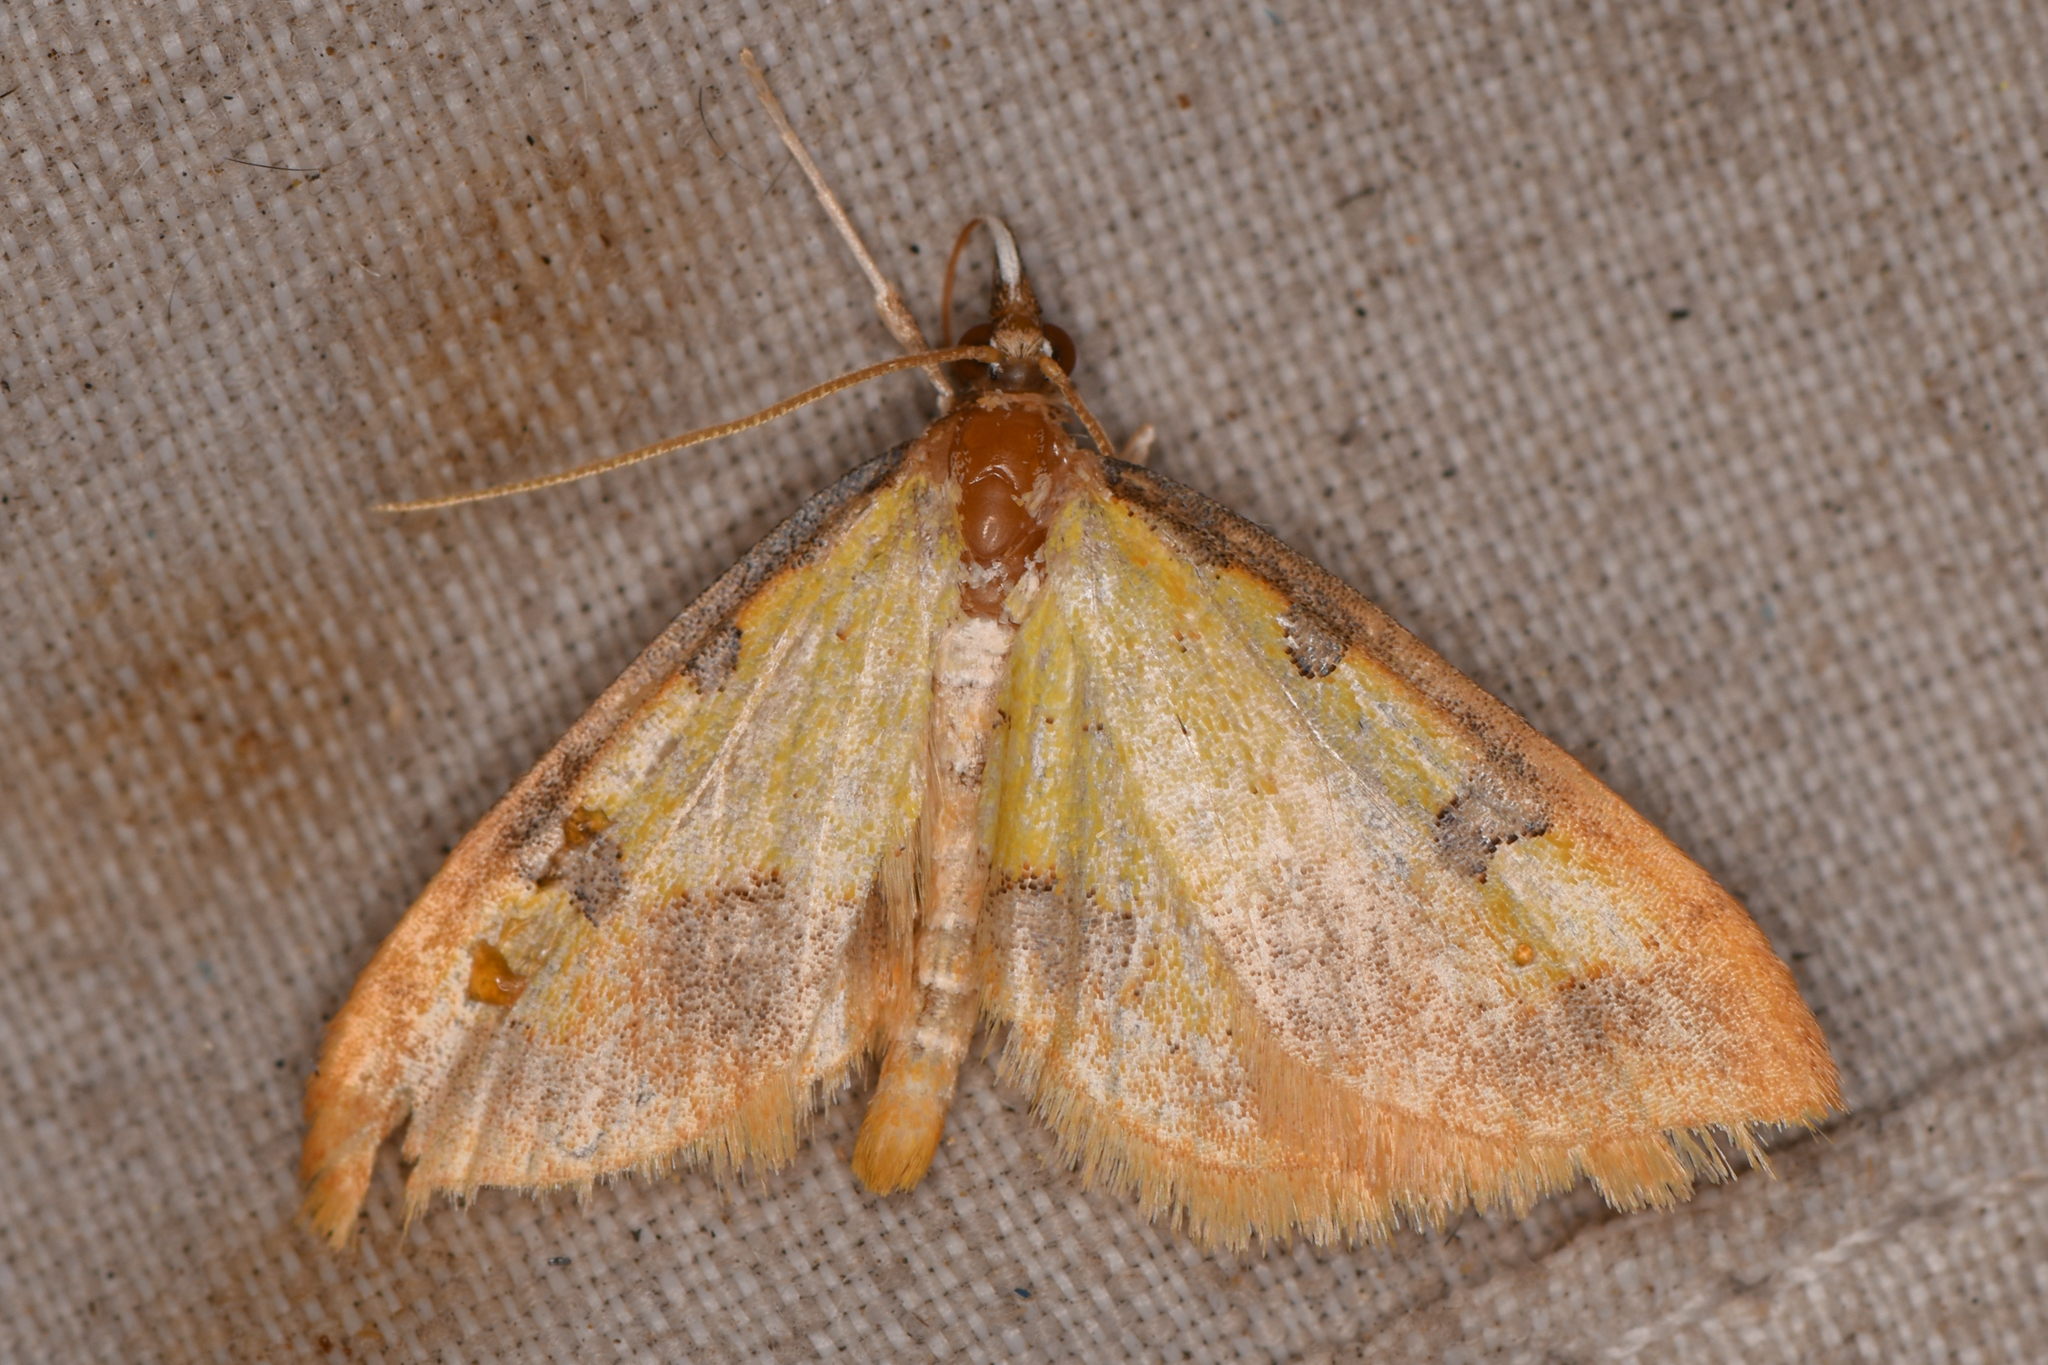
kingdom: Animalia
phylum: Arthropoda
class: Insecta
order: Lepidoptera
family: Crambidae
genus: Choristostigma
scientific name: Choristostigma zephyralis
